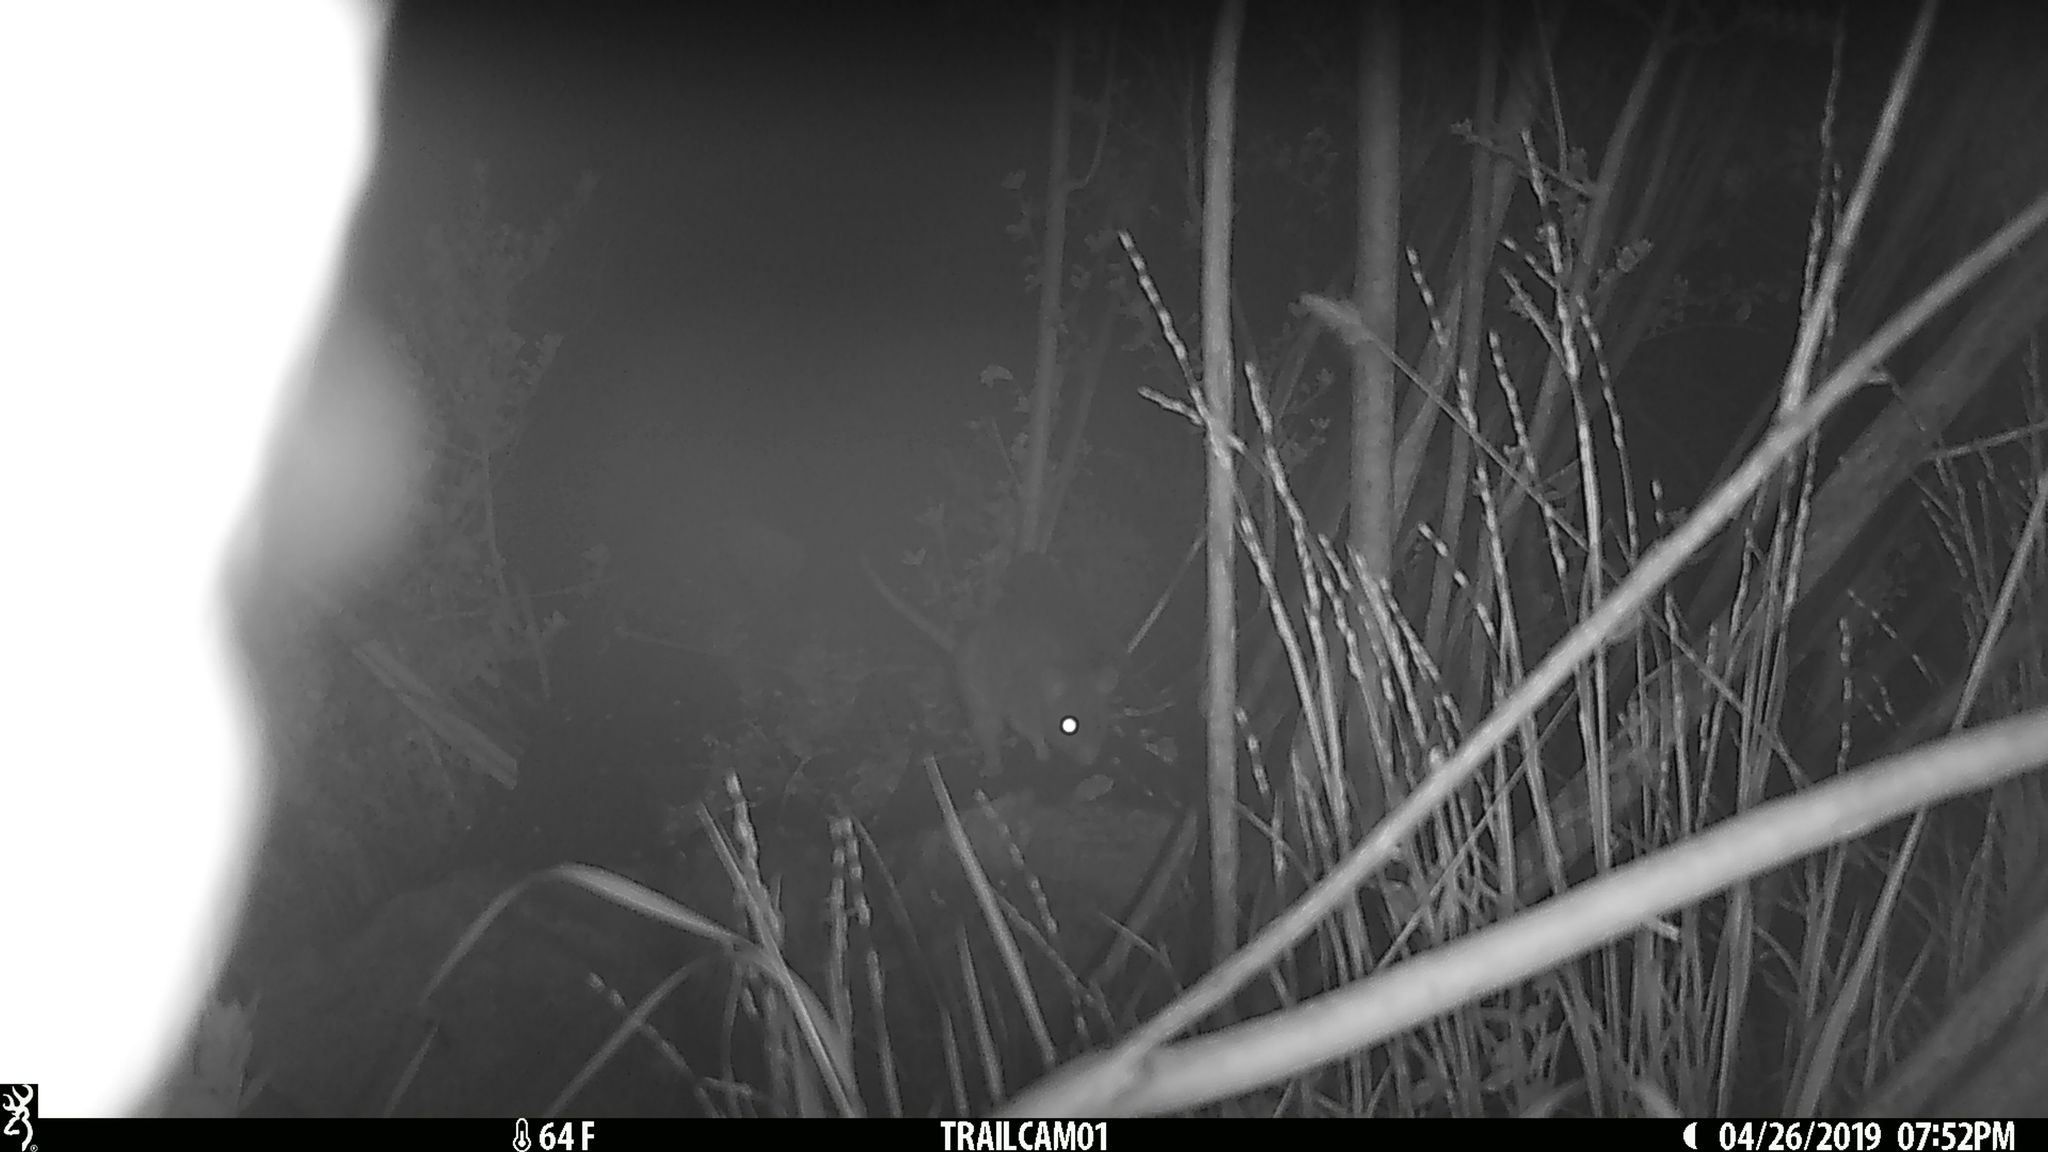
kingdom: Animalia
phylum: Chordata
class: Mammalia
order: Rodentia
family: Cricetidae
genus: Neotoma
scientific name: Neotoma fuscipes
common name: Dusky-footed woodrat
